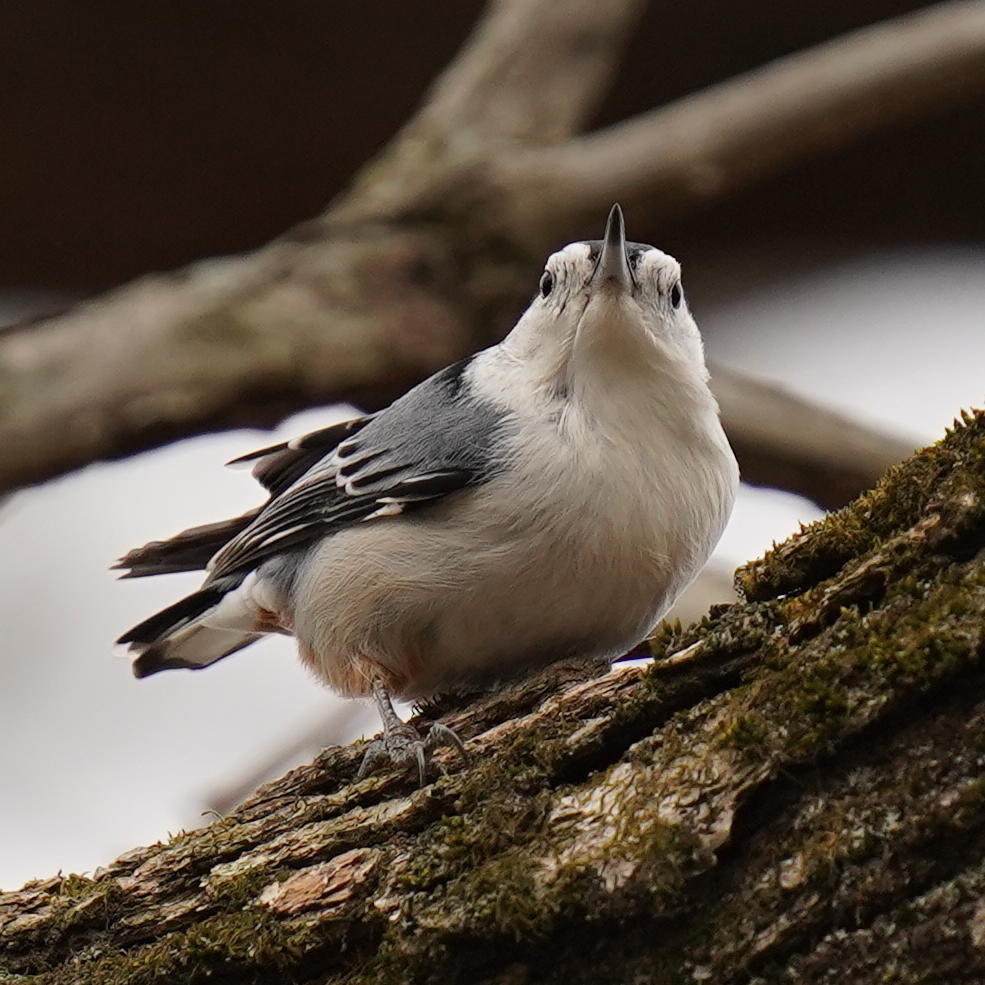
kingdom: Animalia
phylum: Chordata
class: Aves
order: Passeriformes
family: Sittidae
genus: Sitta
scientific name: Sitta carolinensis
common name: White-breasted nuthatch
